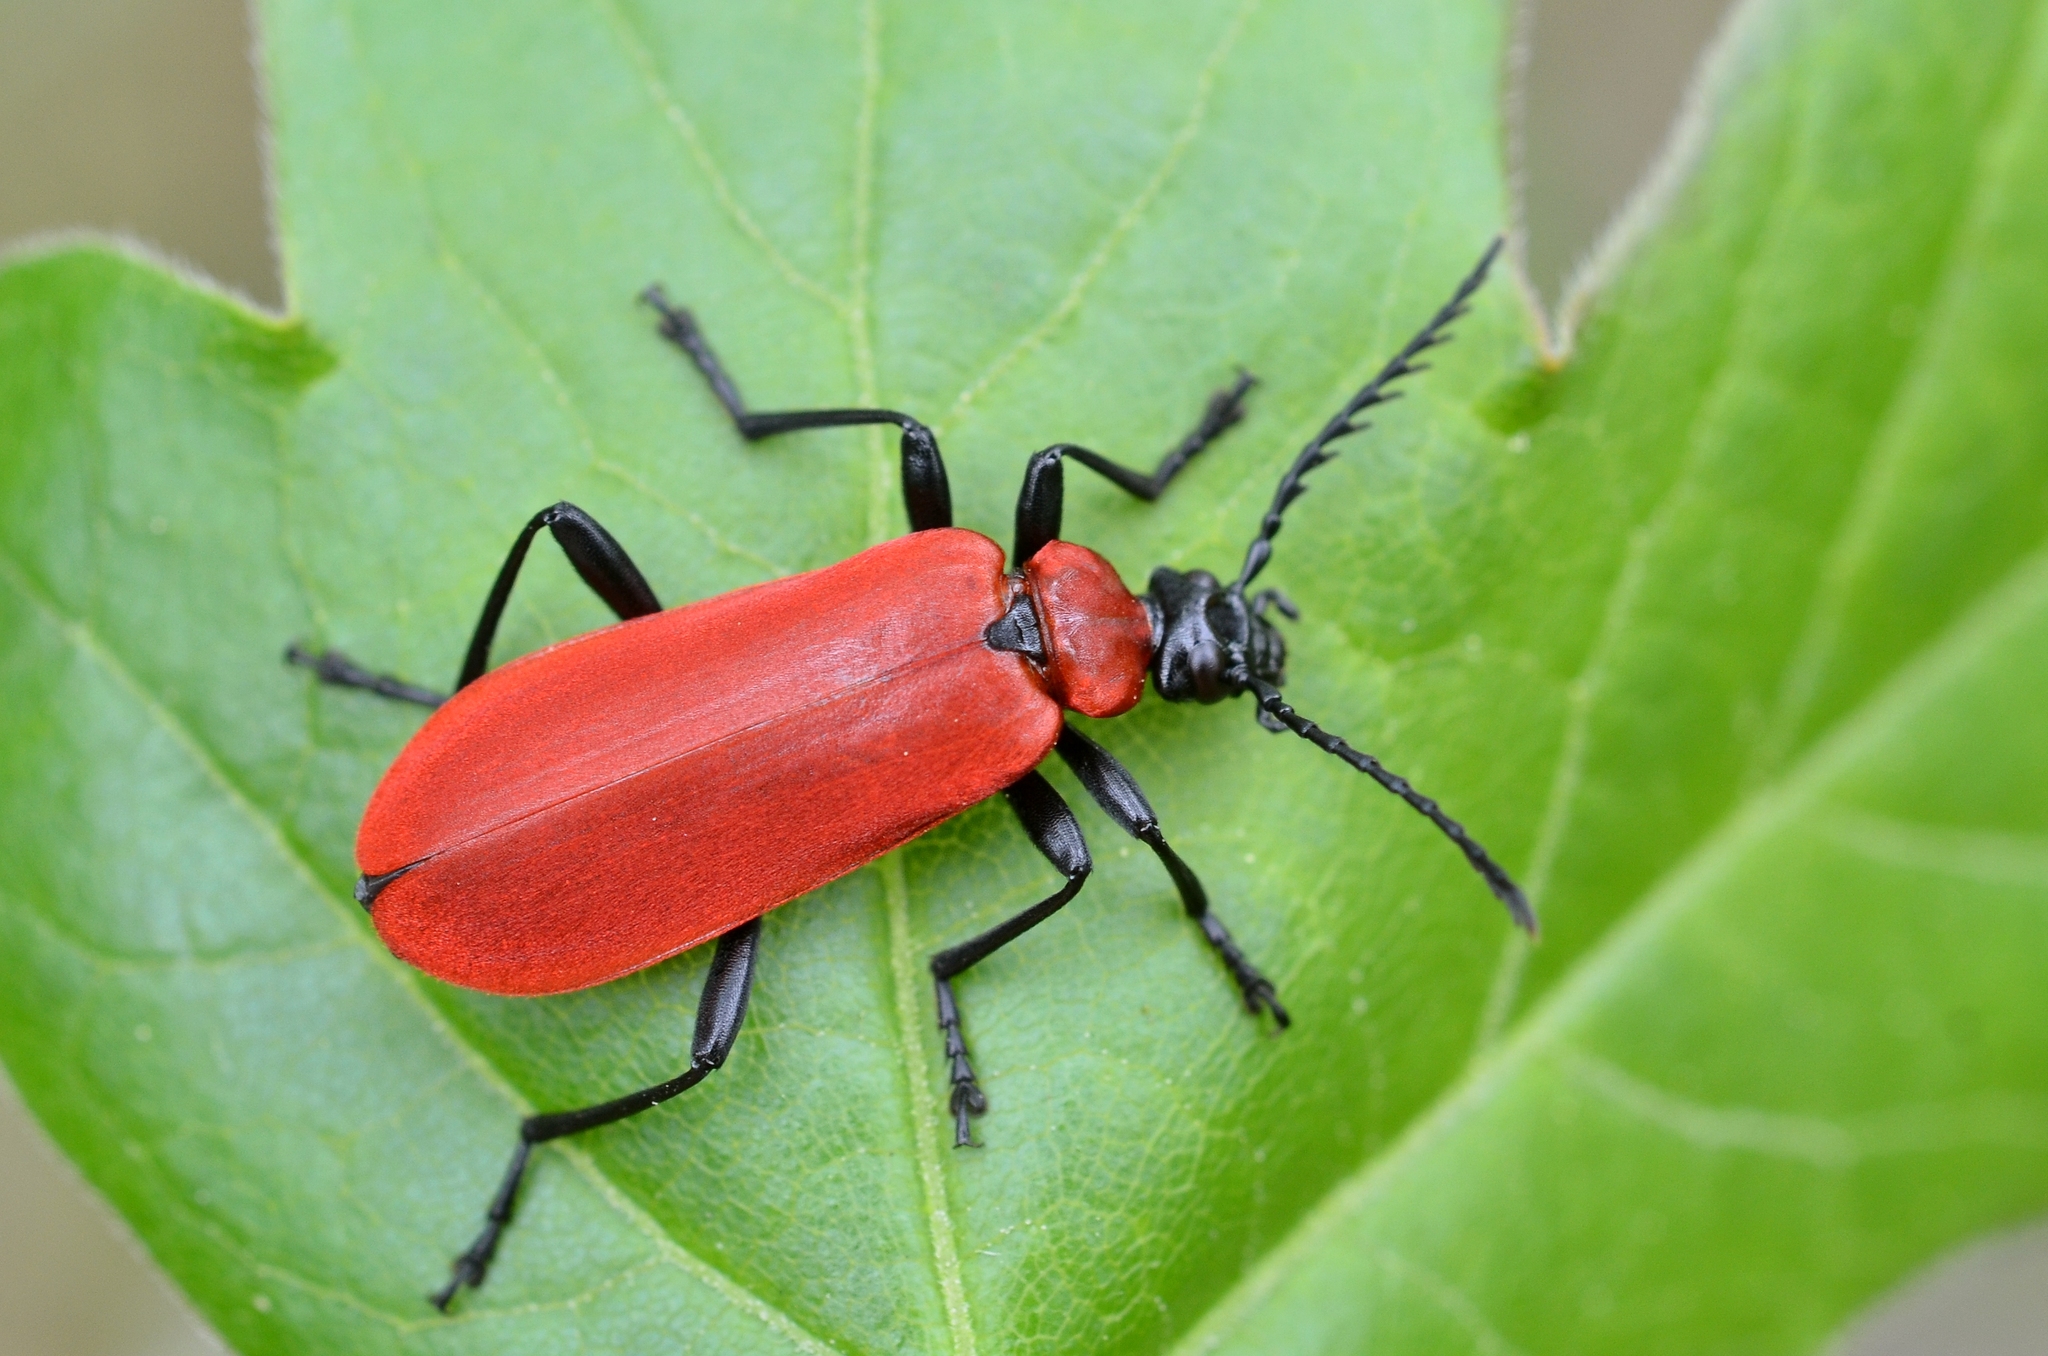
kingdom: Animalia
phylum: Arthropoda
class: Insecta
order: Coleoptera
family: Pyrochroidae
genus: Pyrochroa
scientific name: Pyrochroa coccinea
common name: Black-headed cardinal beetle
